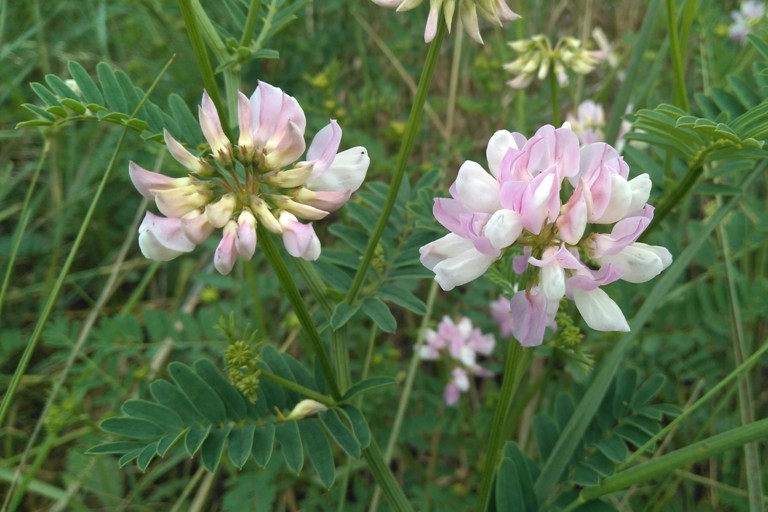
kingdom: Plantae
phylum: Tracheophyta
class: Magnoliopsida
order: Fabales
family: Fabaceae
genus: Coronilla
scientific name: Coronilla varia
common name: Crownvetch
